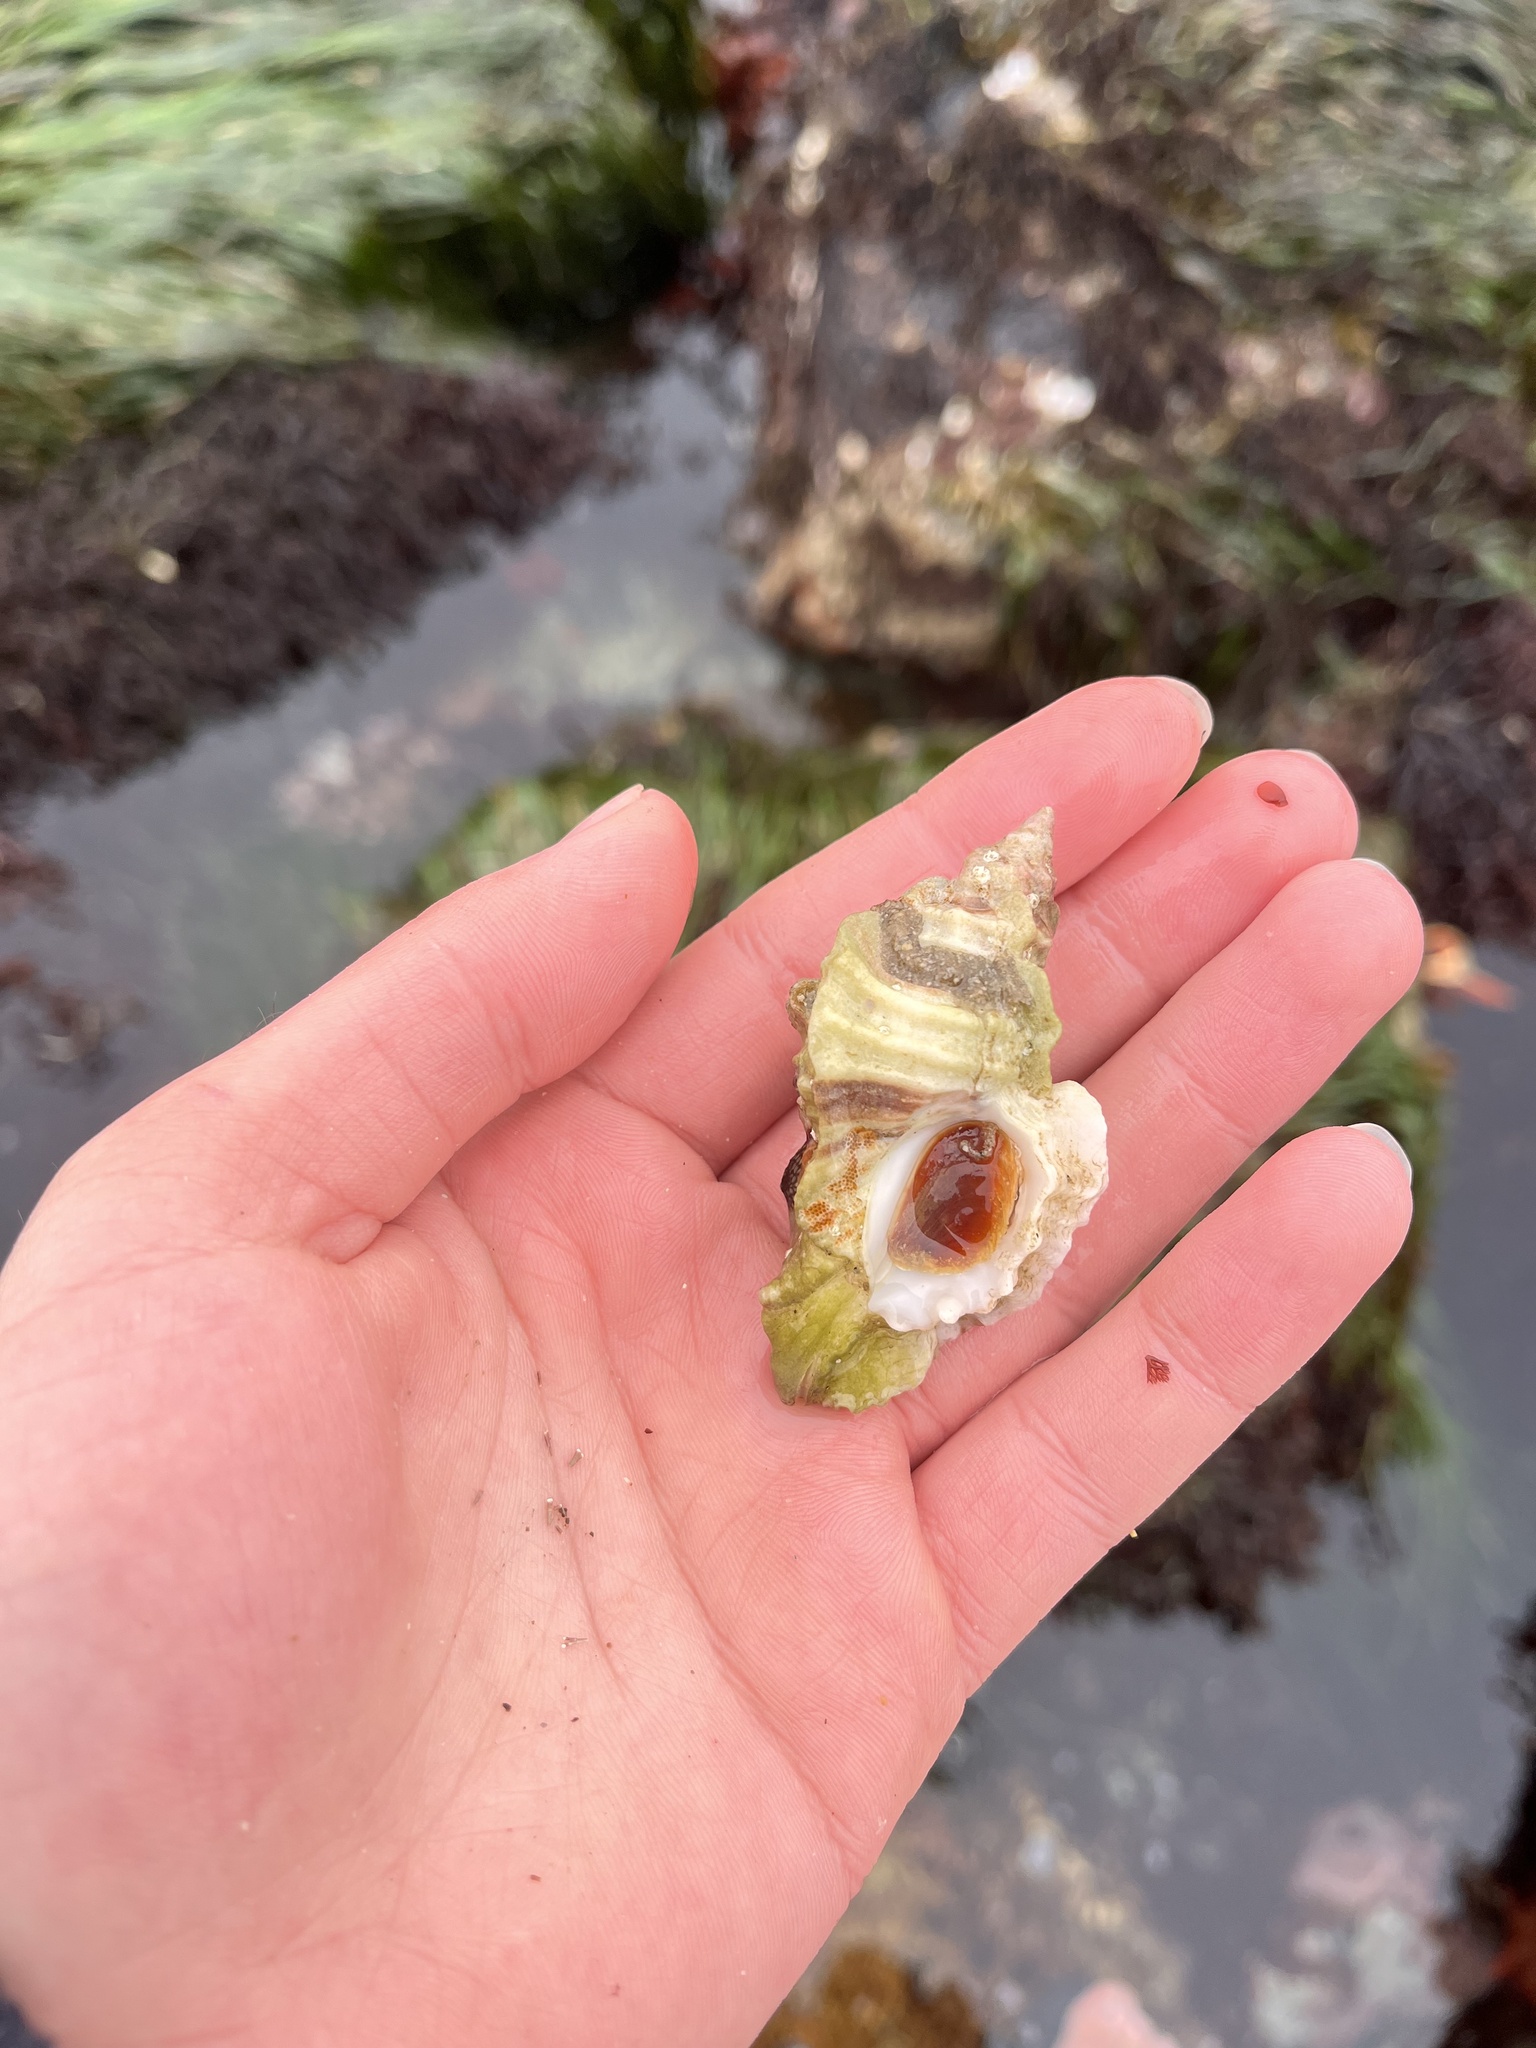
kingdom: Animalia
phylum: Mollusca
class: Gastropoda
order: Neogastropoda
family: Muricidae
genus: Ceratostoma
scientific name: Ceratostoma foliatum
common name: Foliate thorn purpura
